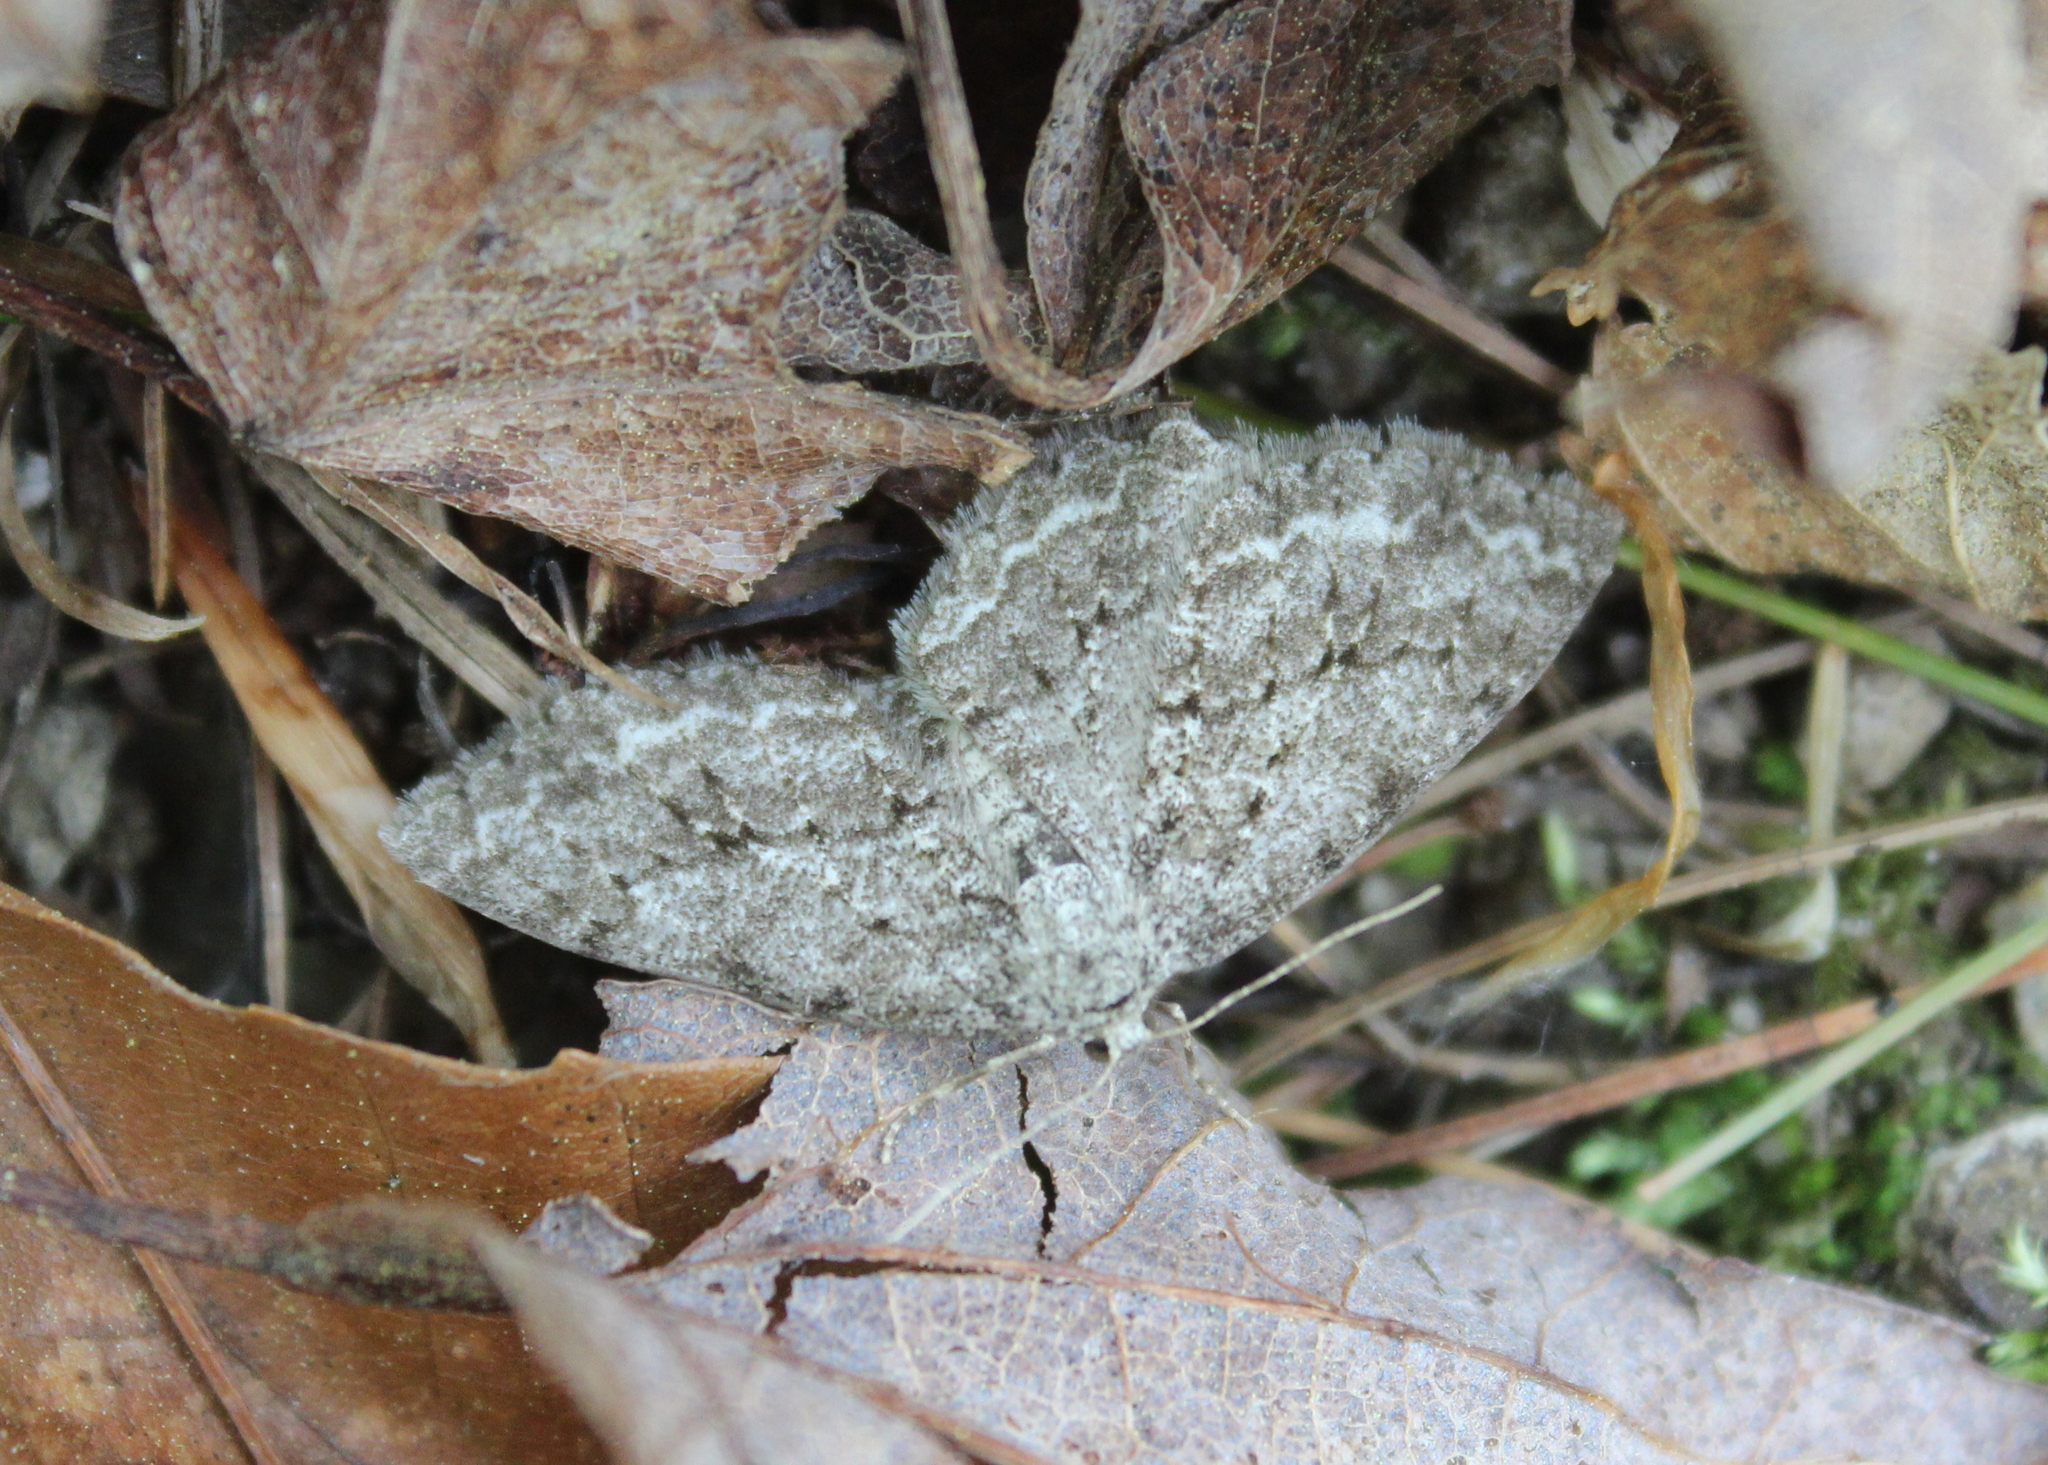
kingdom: Animalia
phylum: Arthropoda
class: Insecta
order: Lepidoptera
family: Geometridae
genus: Ectropis
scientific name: Ectropis crepuscularia
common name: Engrailed
